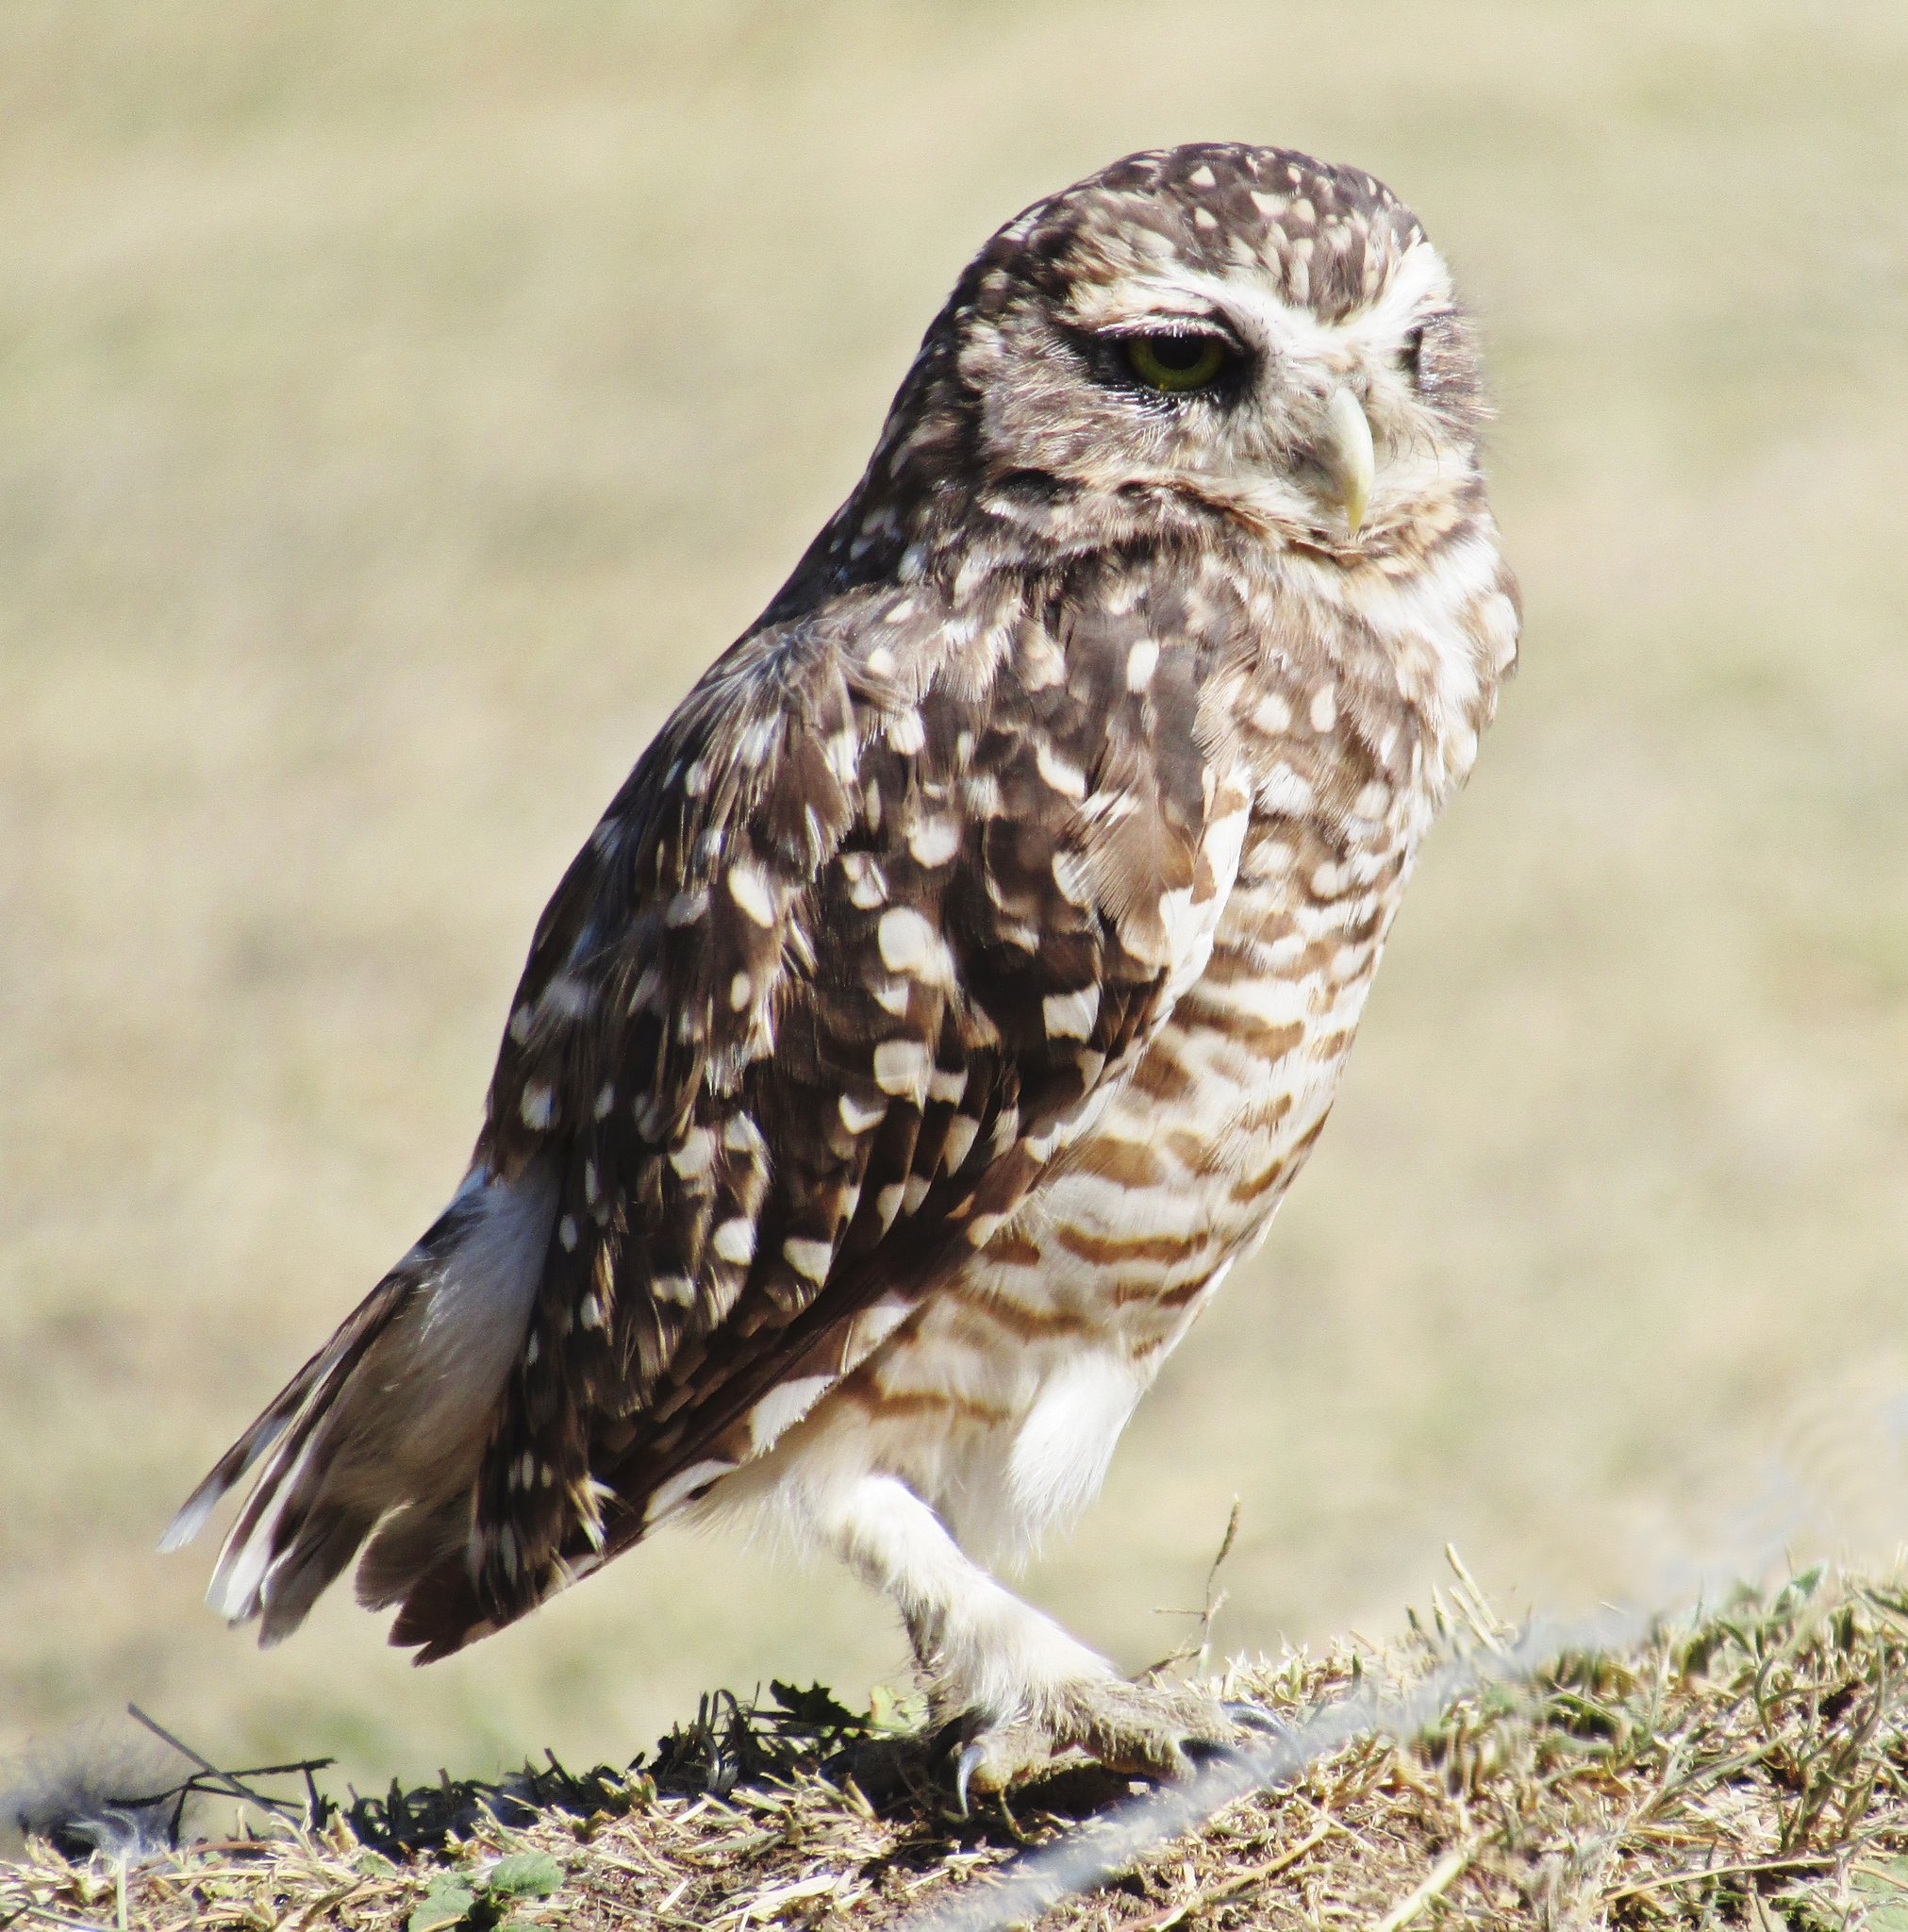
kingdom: Animalia
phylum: Chordata
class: Aves
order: Strigiformes
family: Strigidae
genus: Athene
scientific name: Athene cunicularia
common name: Burrowing owl
